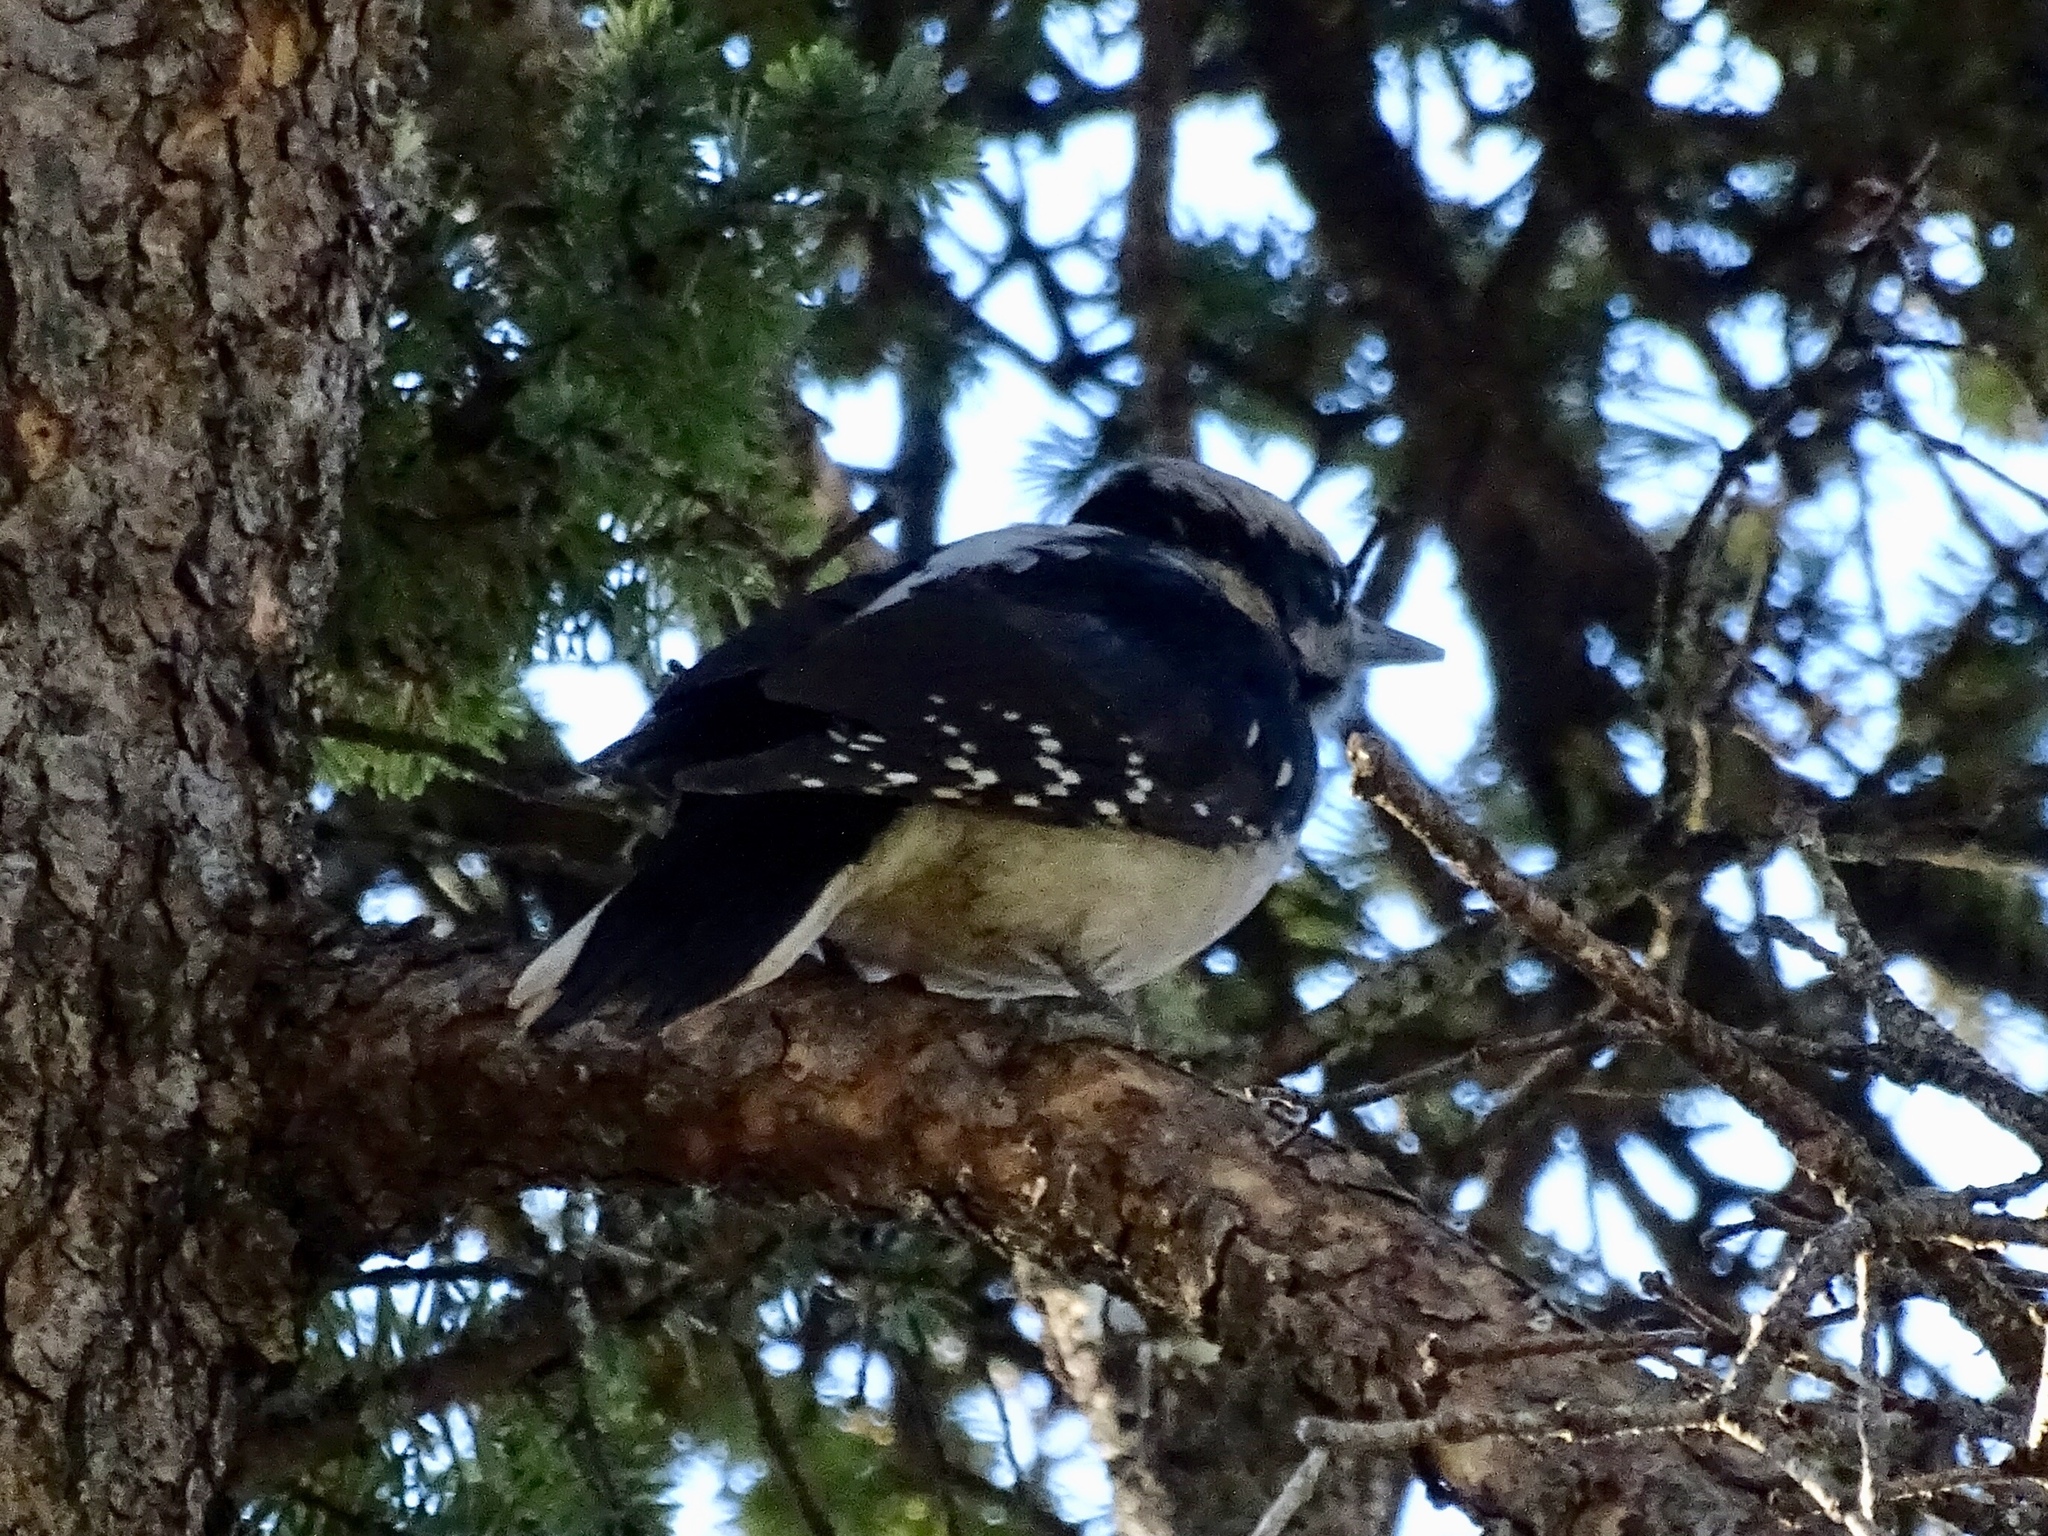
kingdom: Animalia
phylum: Chordata
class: Aves
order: Piciformes
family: Picidae
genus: Dryobates
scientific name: Dryobates pubescens
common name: Downy woodpecker
